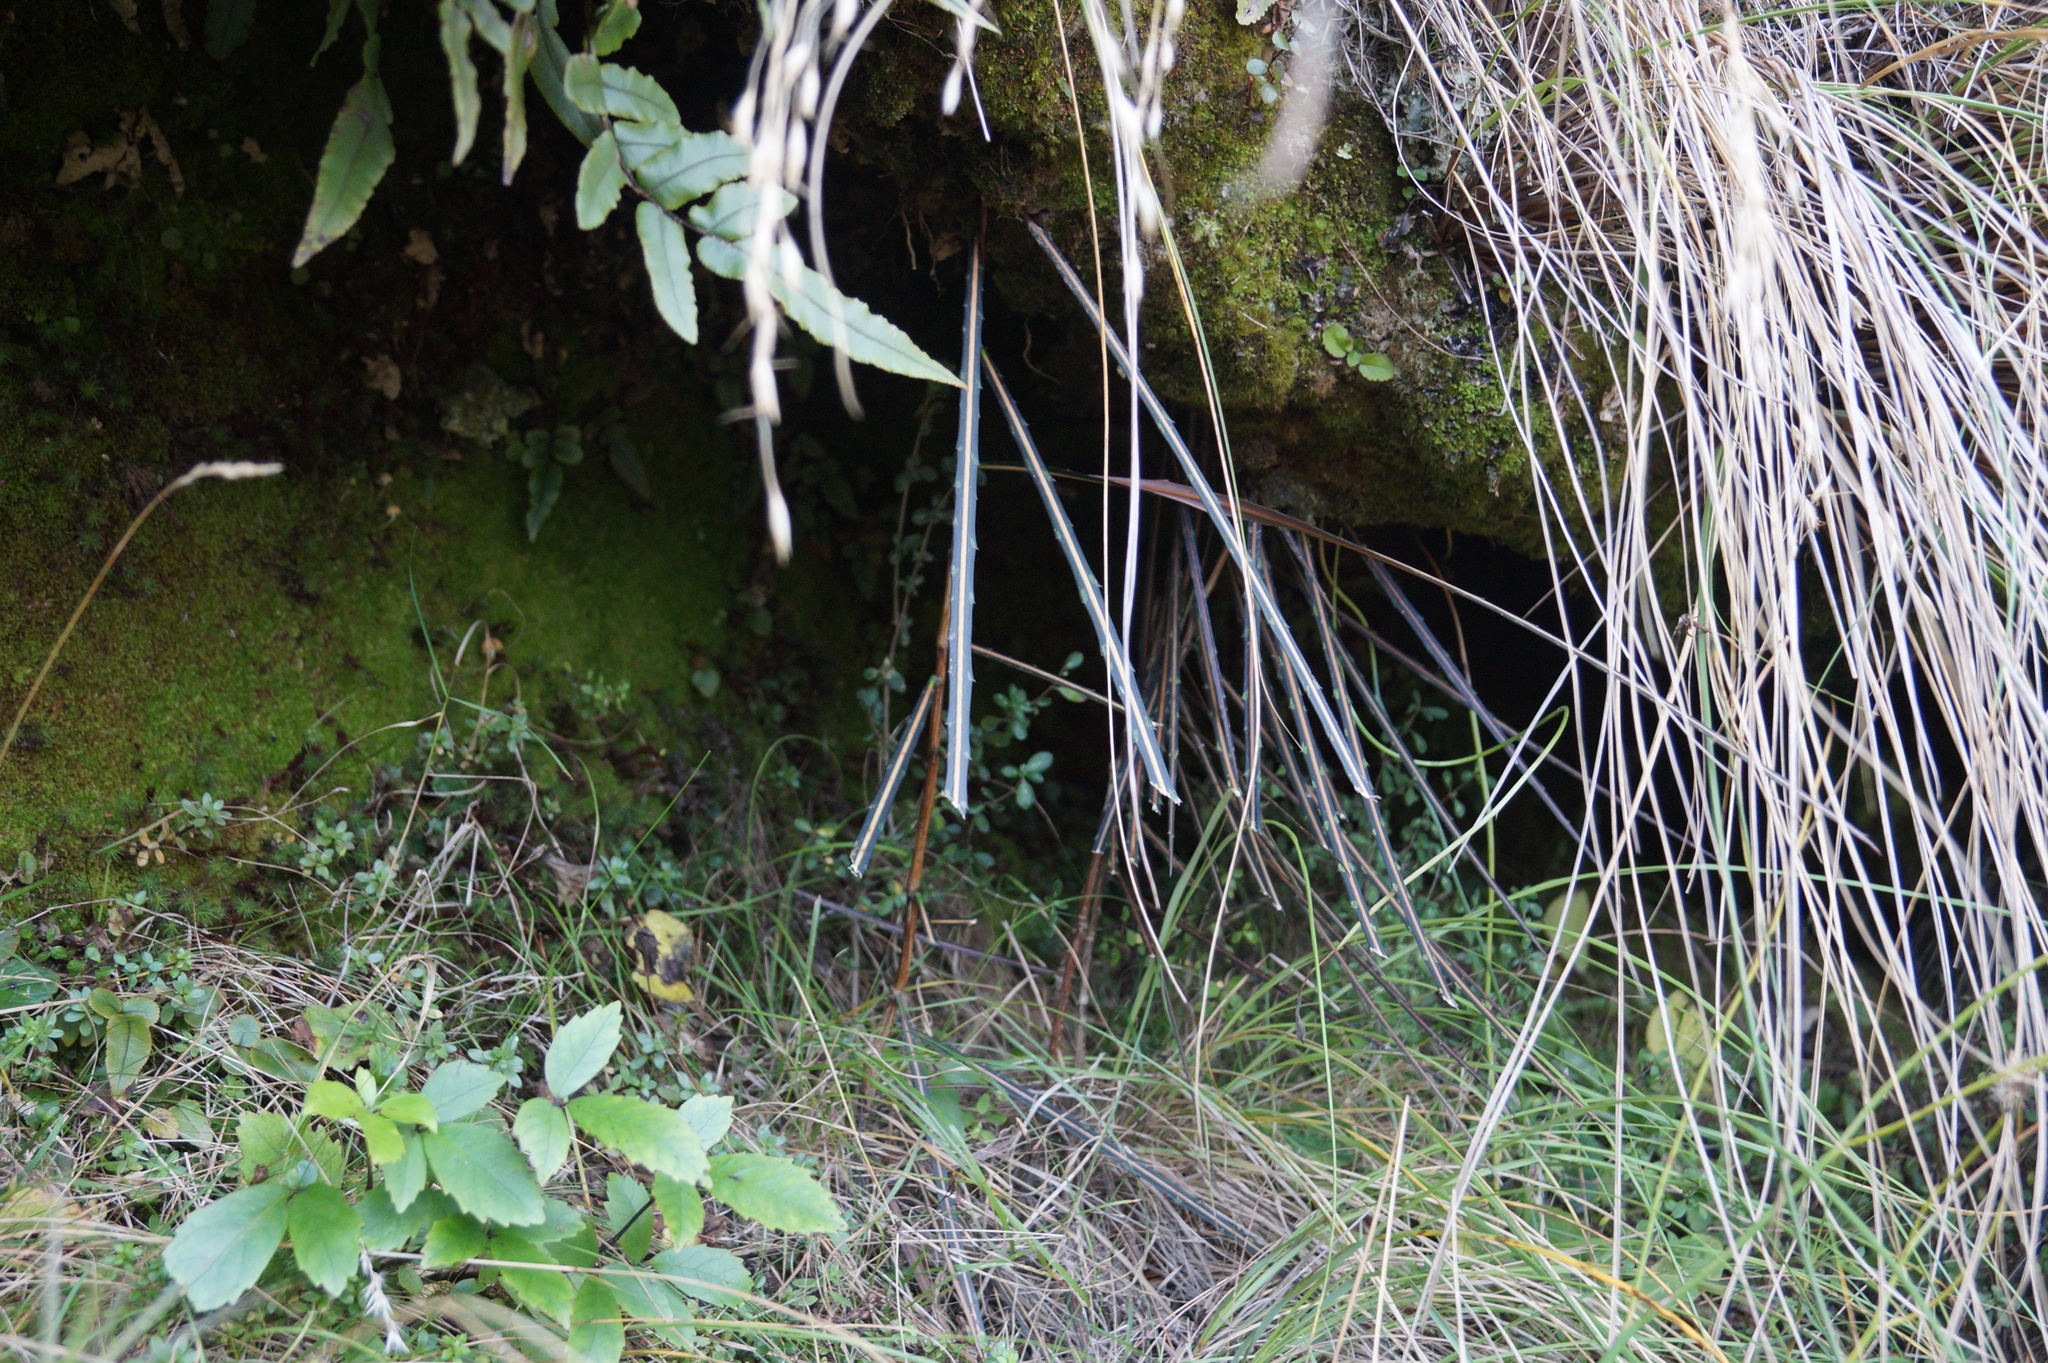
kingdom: Plantae
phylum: Tracheophyta
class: Magnoliopsida
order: Apiales
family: Araliaceae
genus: Pseudopanax
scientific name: Pseudopanax crassifolius
